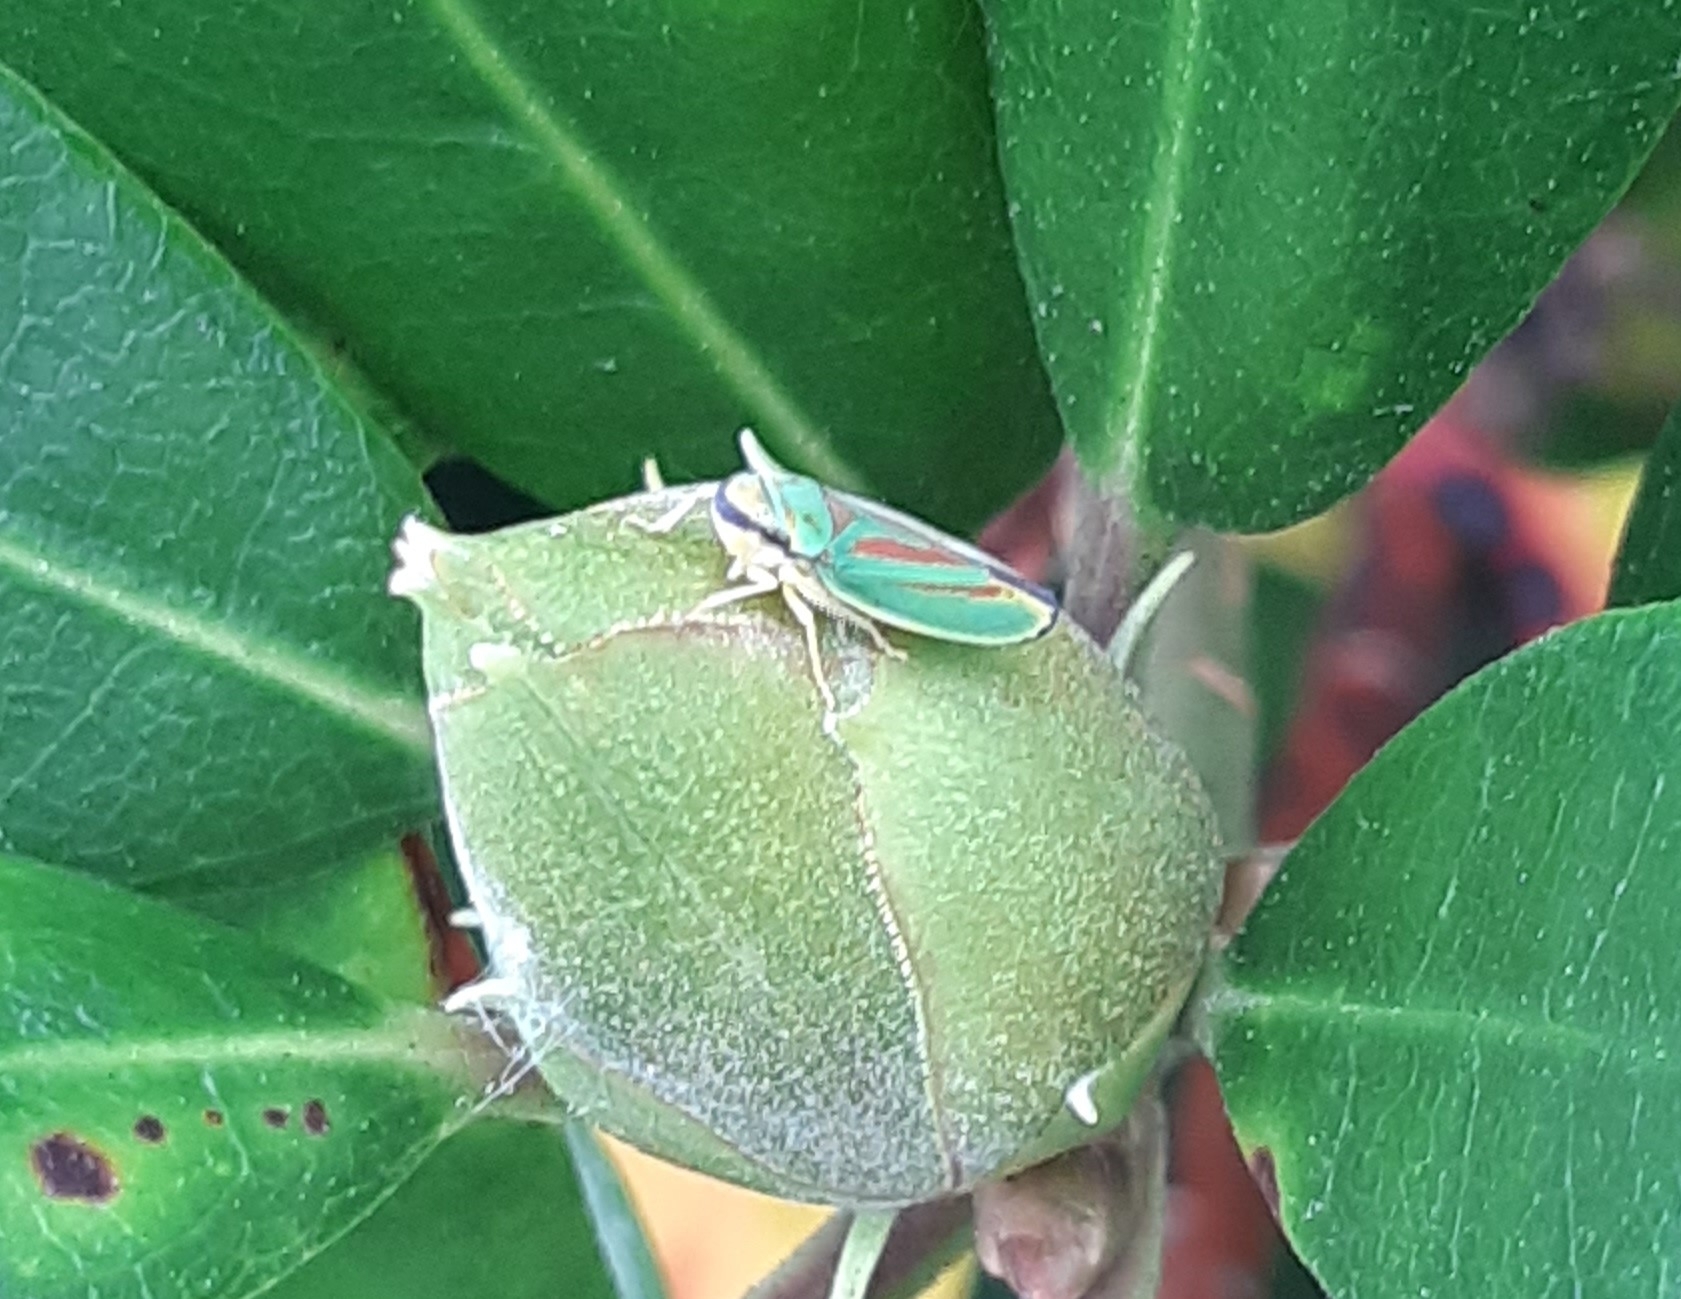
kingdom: Animalia
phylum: Arthropoda
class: Insecta
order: Hemiptera
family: Cicadellidae
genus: Graphocephala
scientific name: Graphocephala fennahi
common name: Rhododendron leafhopper
